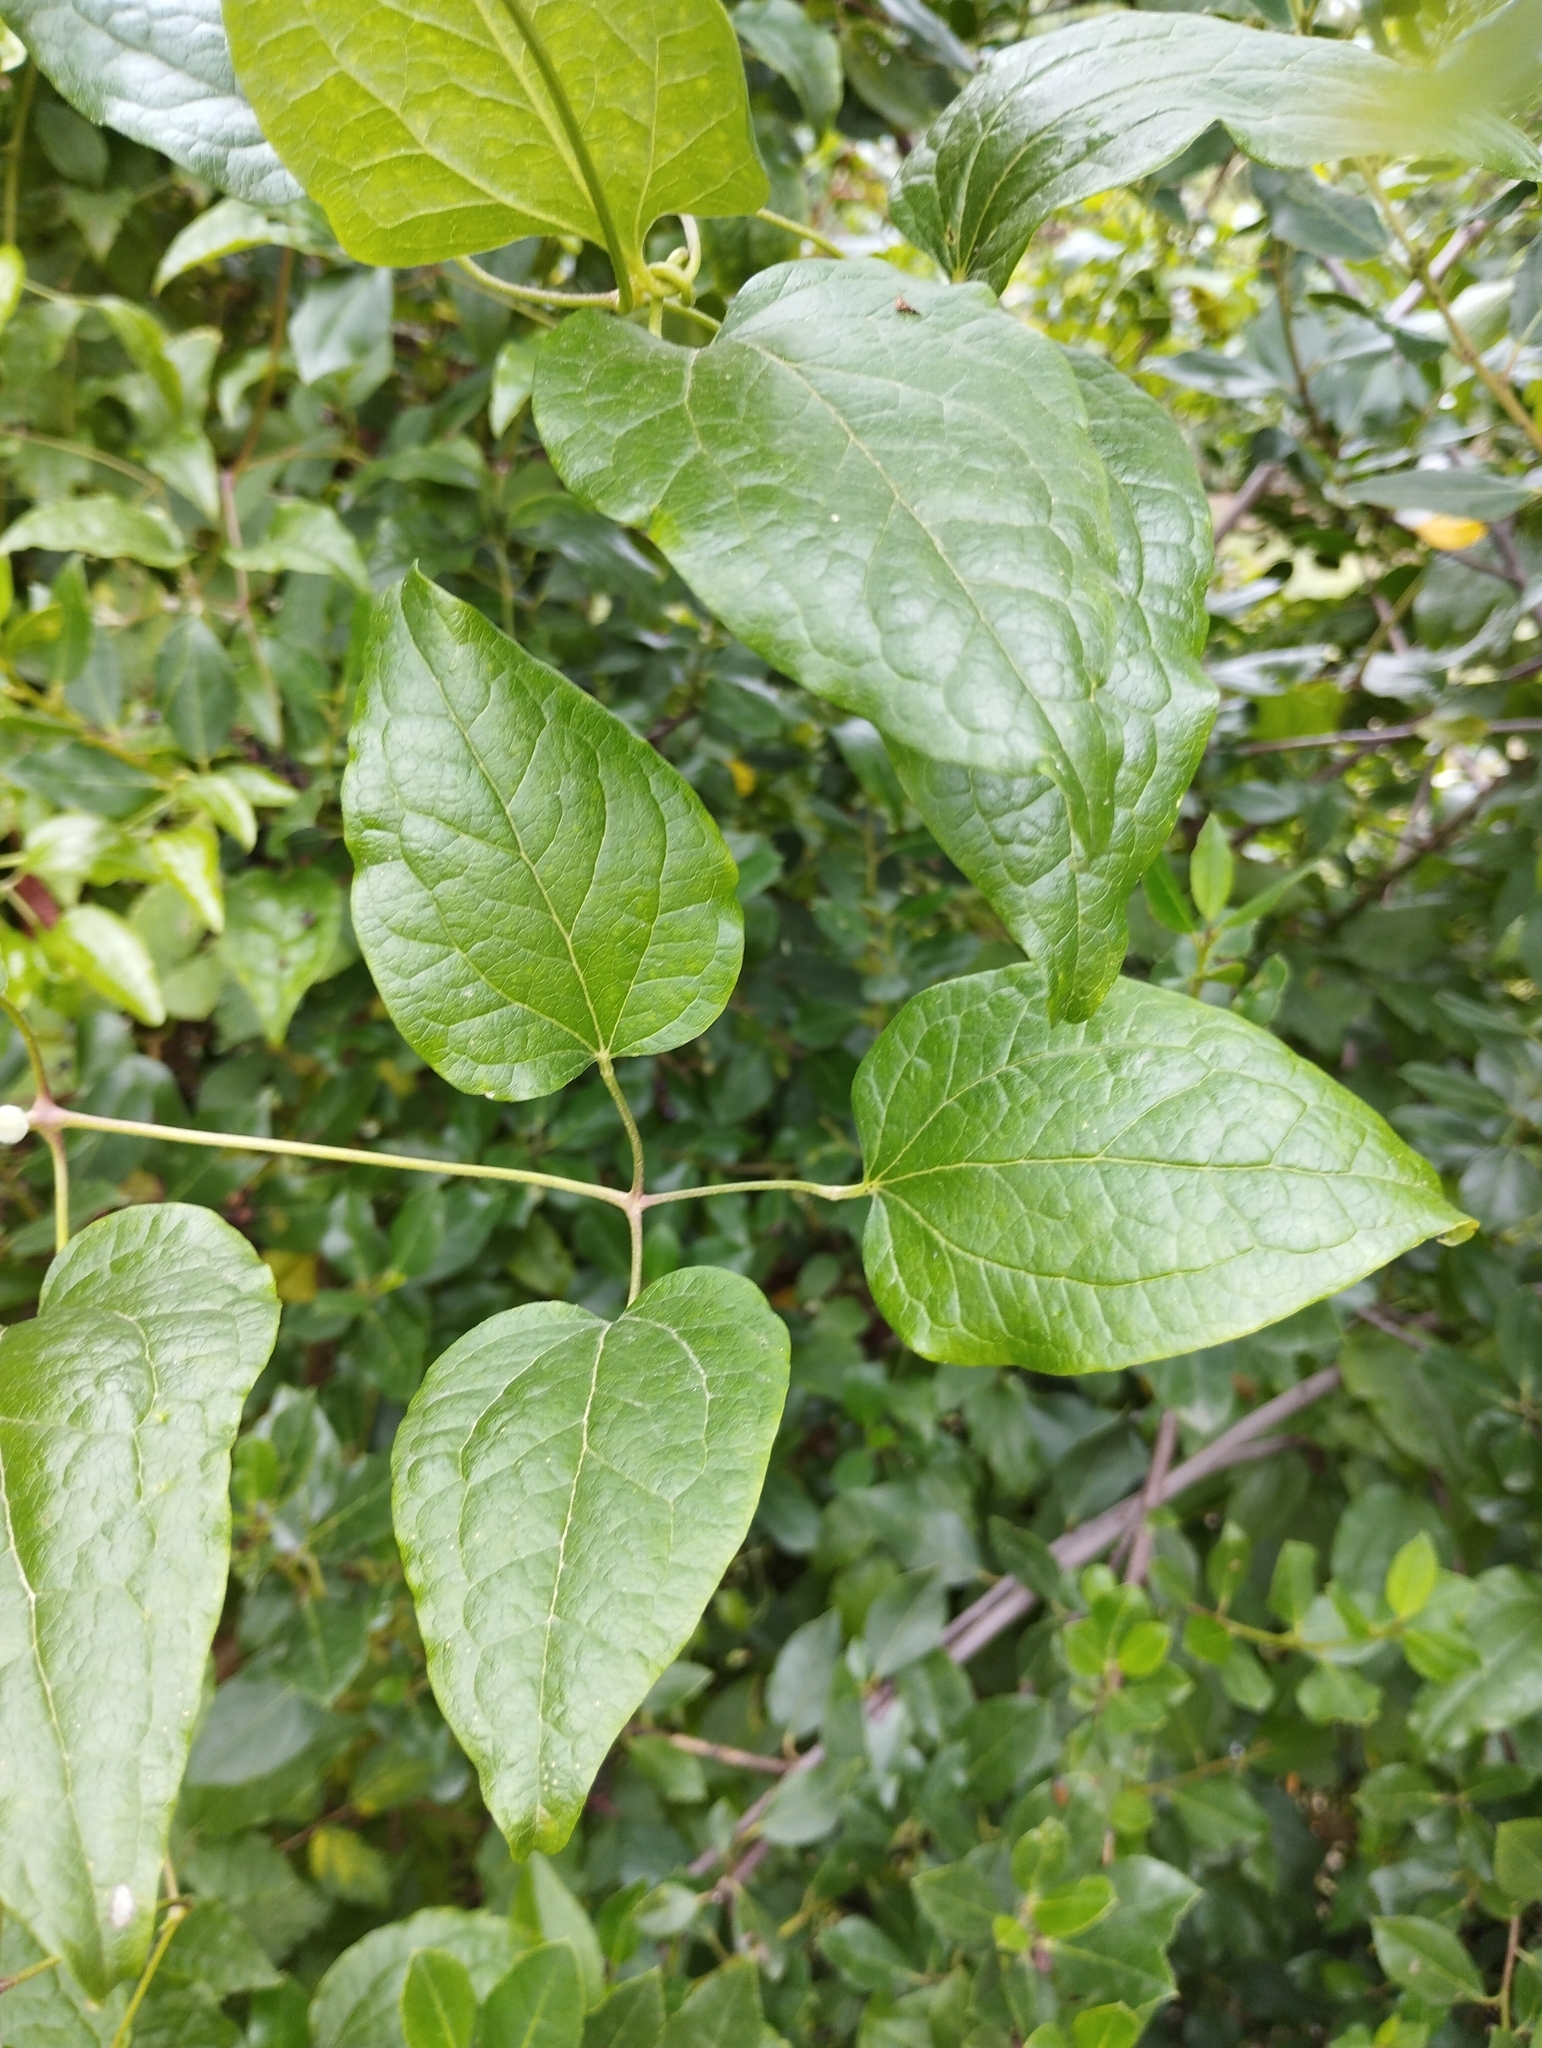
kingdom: Plantae
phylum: Tracheophyta
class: Magnoliopsida
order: Ranunculales
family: Ranunculaceae
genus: Clematis
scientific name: Clematis vitalba
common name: Evergreen clematis
